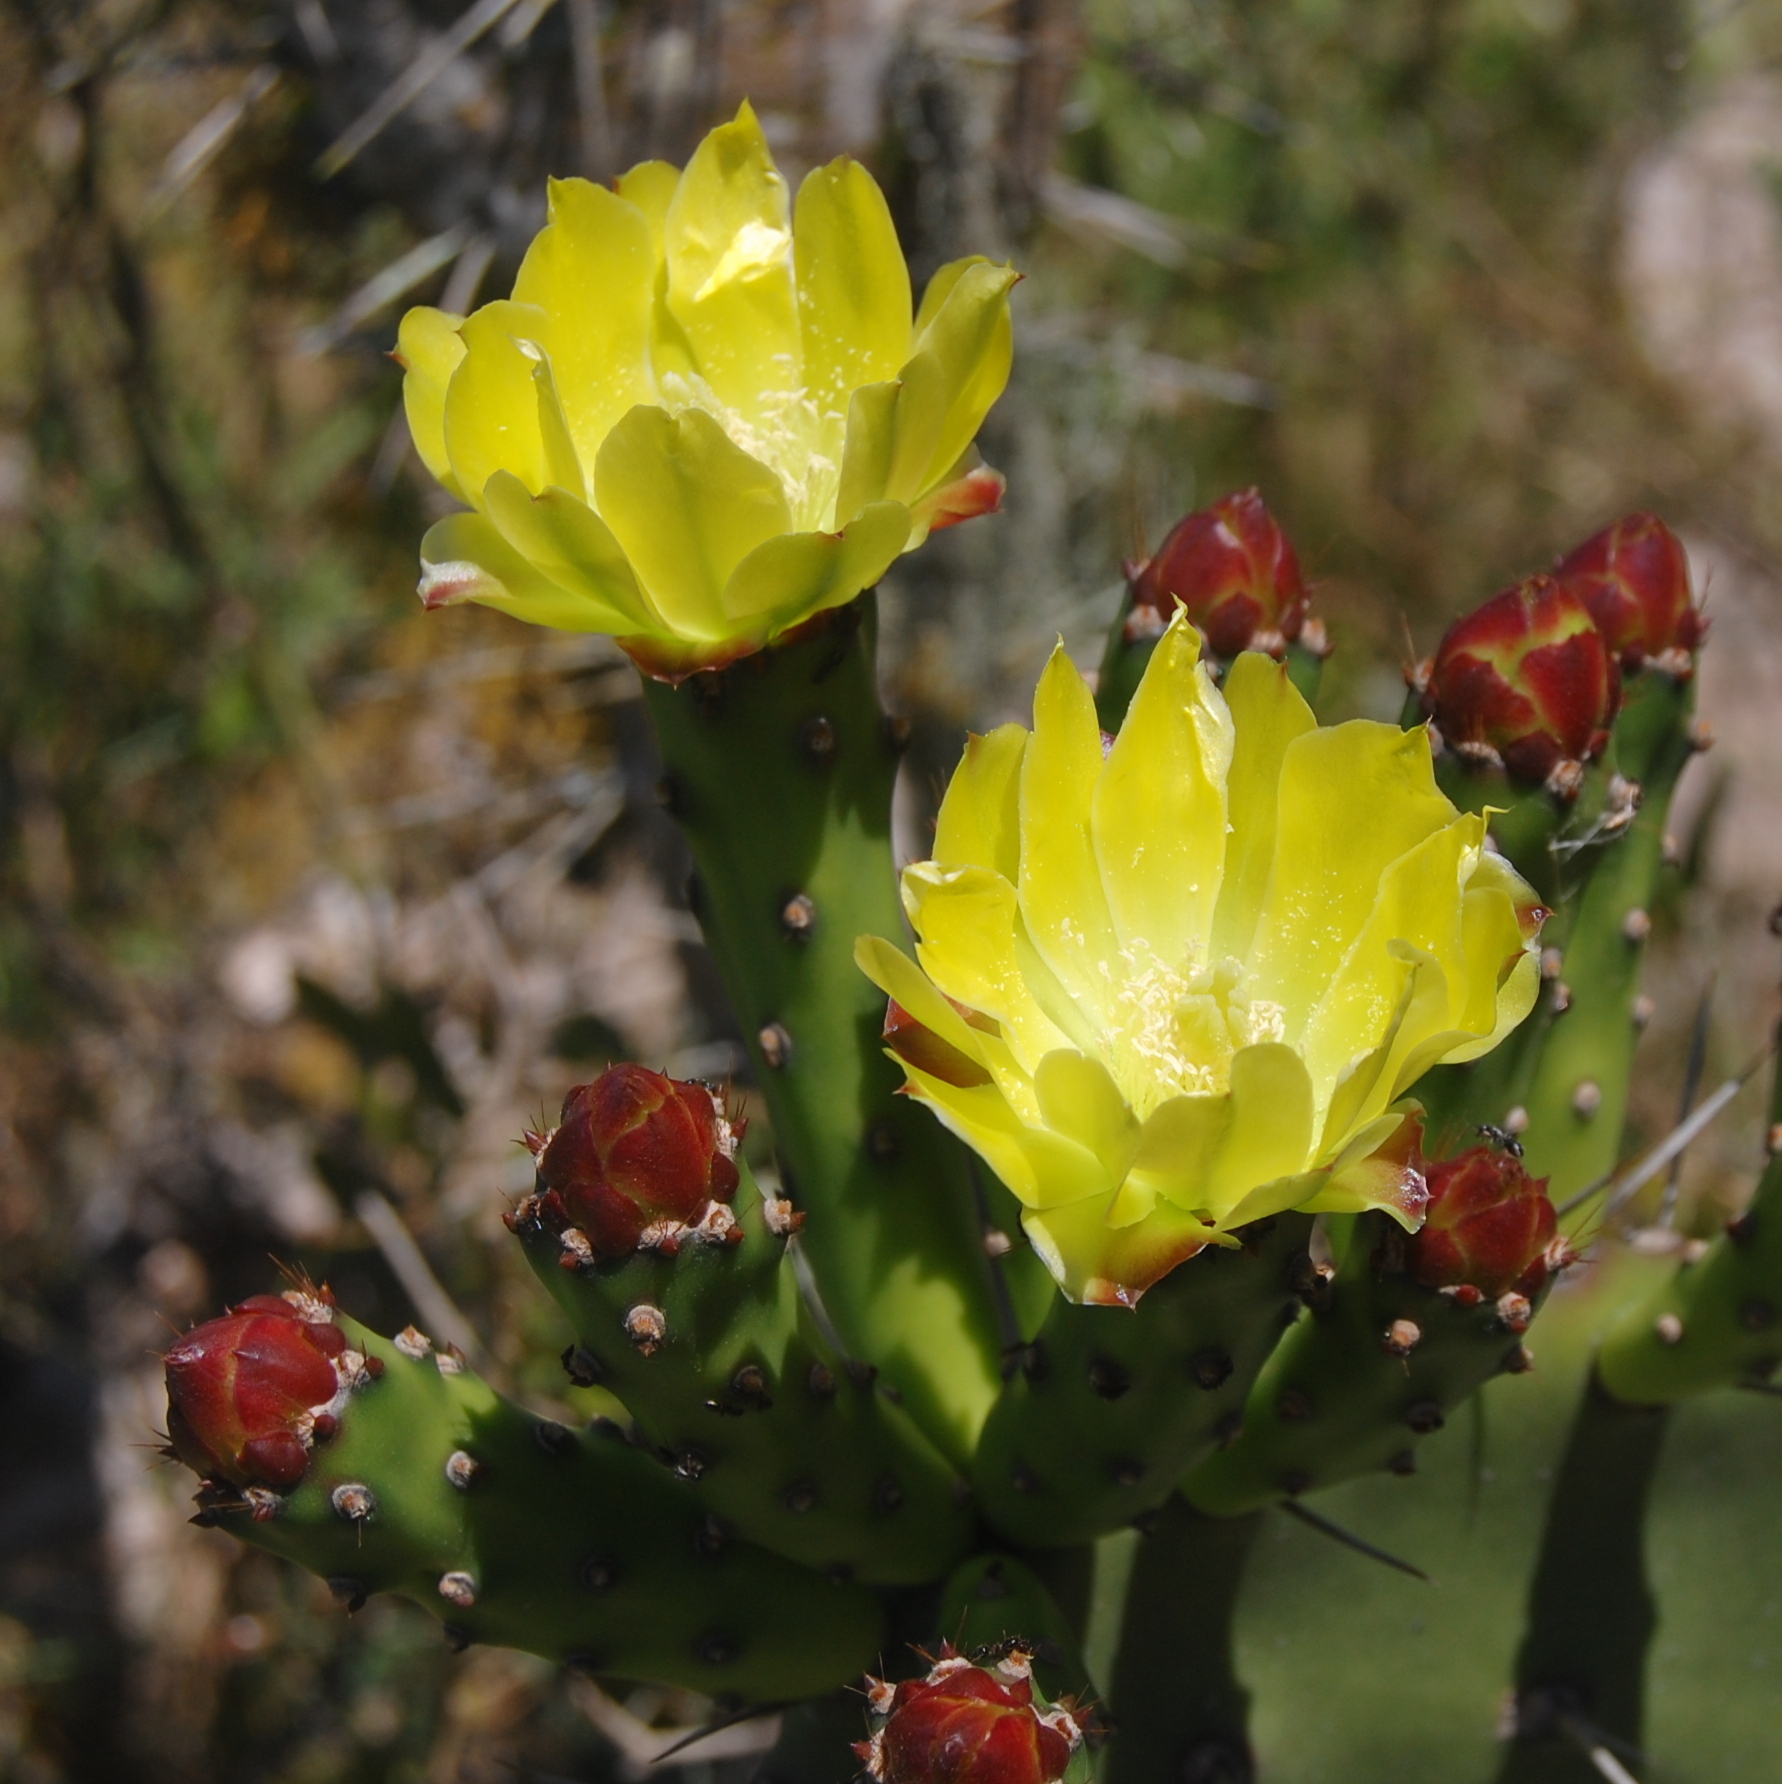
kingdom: Plantae
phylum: Tracheophyta
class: Magnoliopsida
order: Caryophyllales
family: Cactaceae
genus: Opuntia
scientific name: Opuntia monacantha
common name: Common pricklypear
